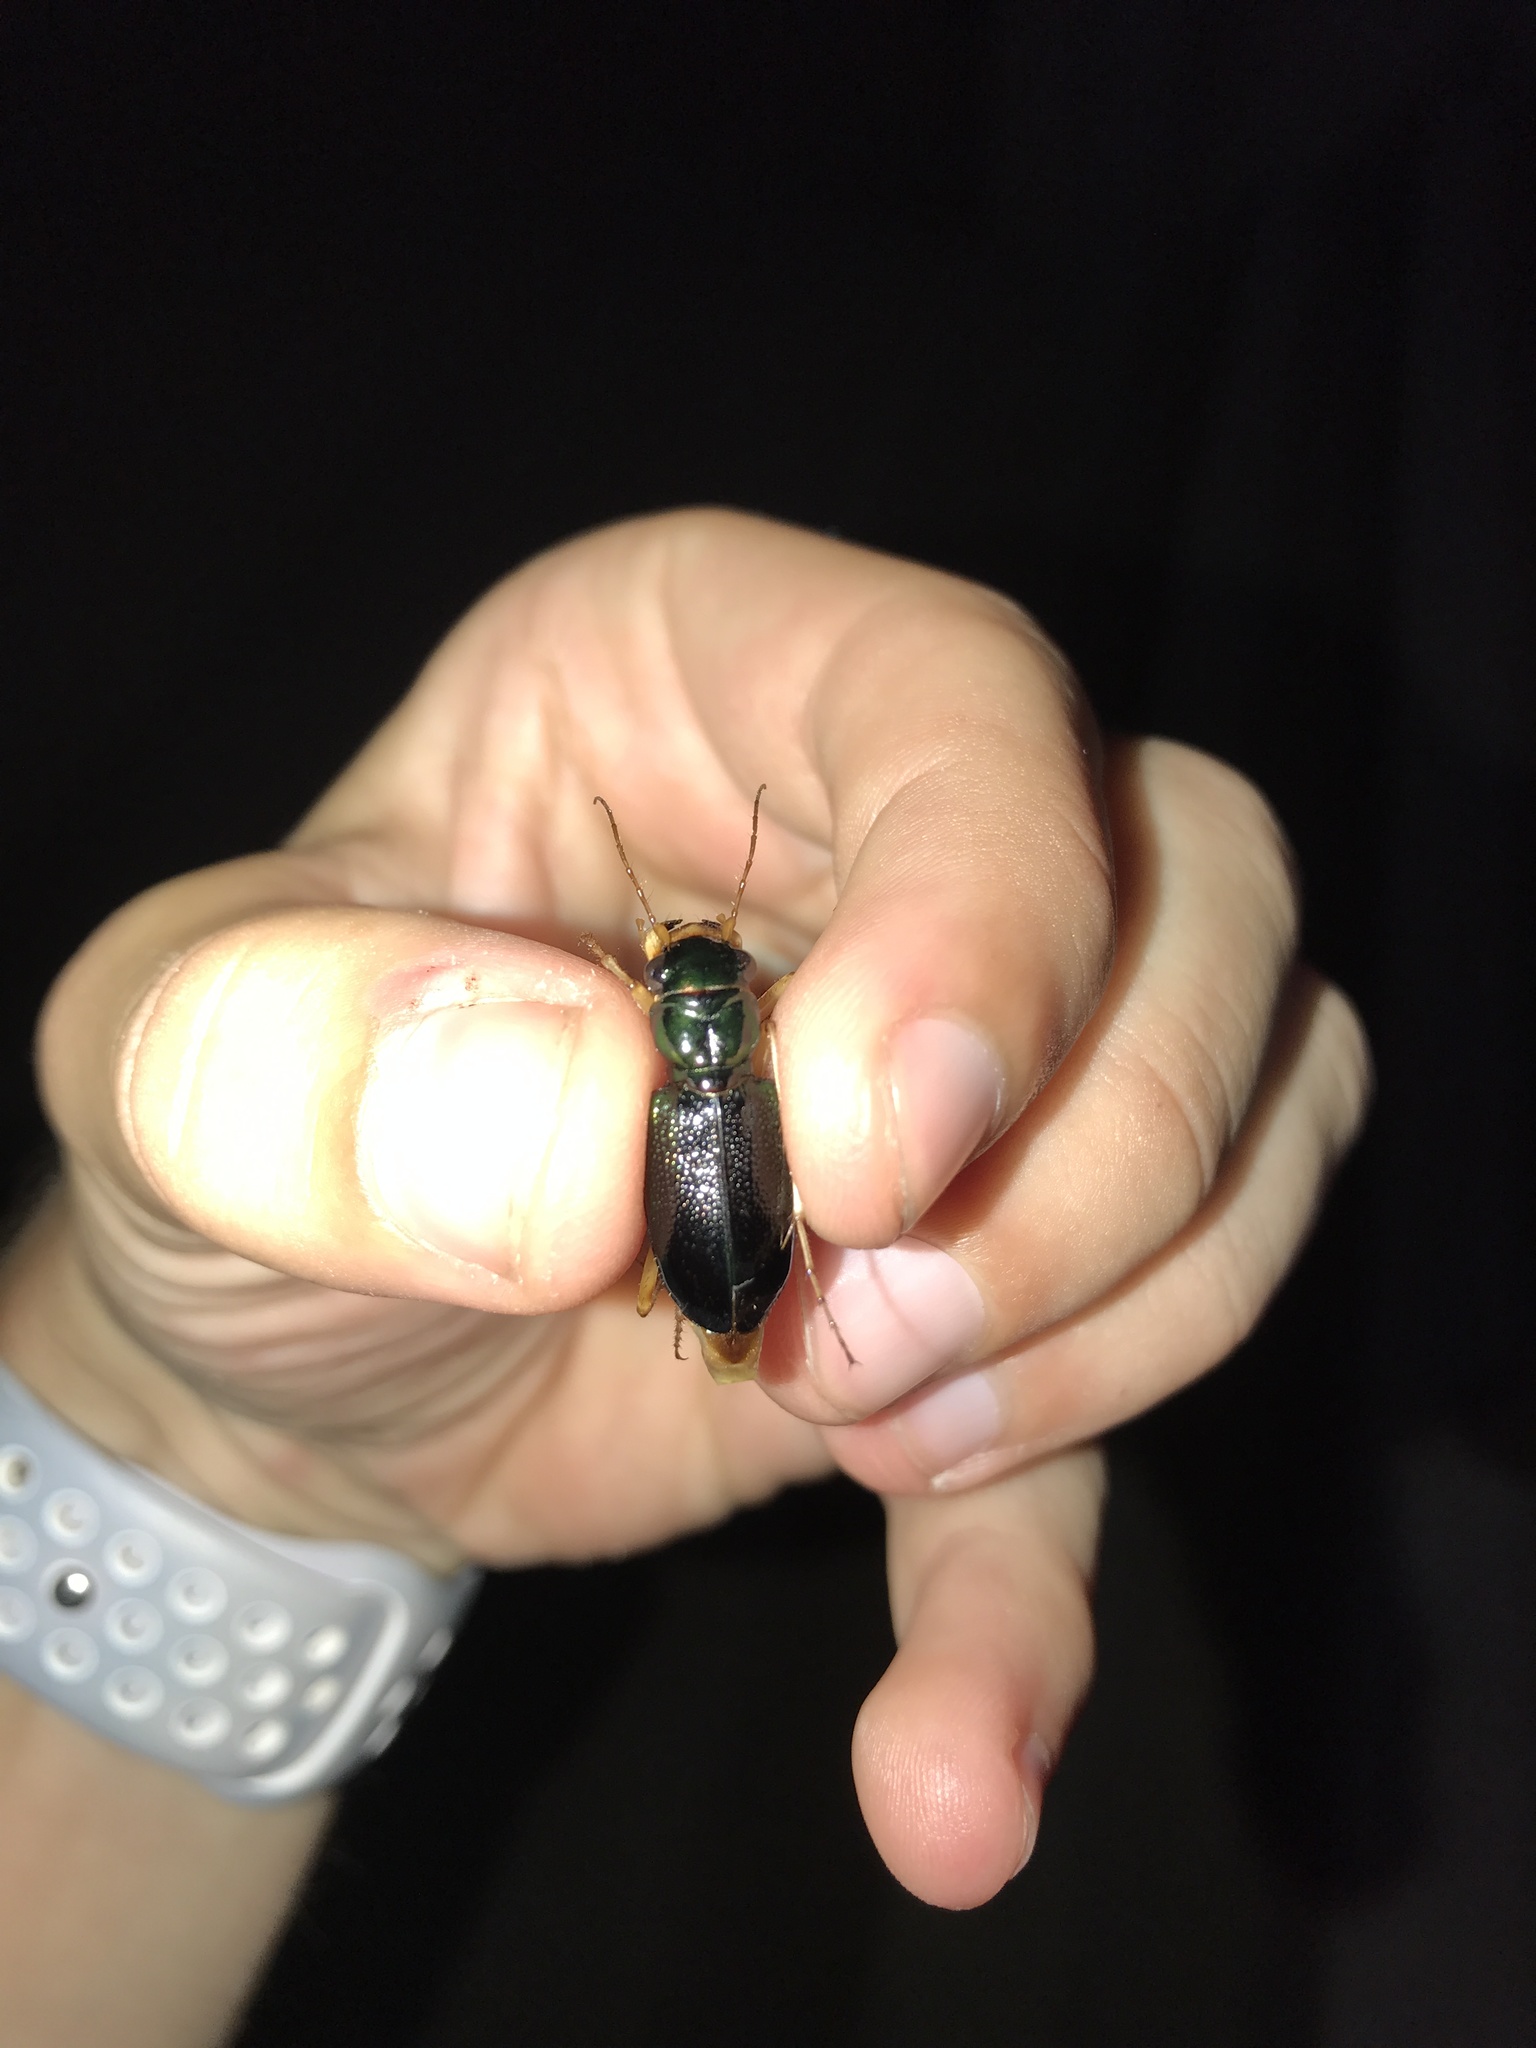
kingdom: Animalia
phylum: Arthropoda
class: Insecta
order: Coleoptera
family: Carabidae
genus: Tetracha
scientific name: Tetracha virginica
